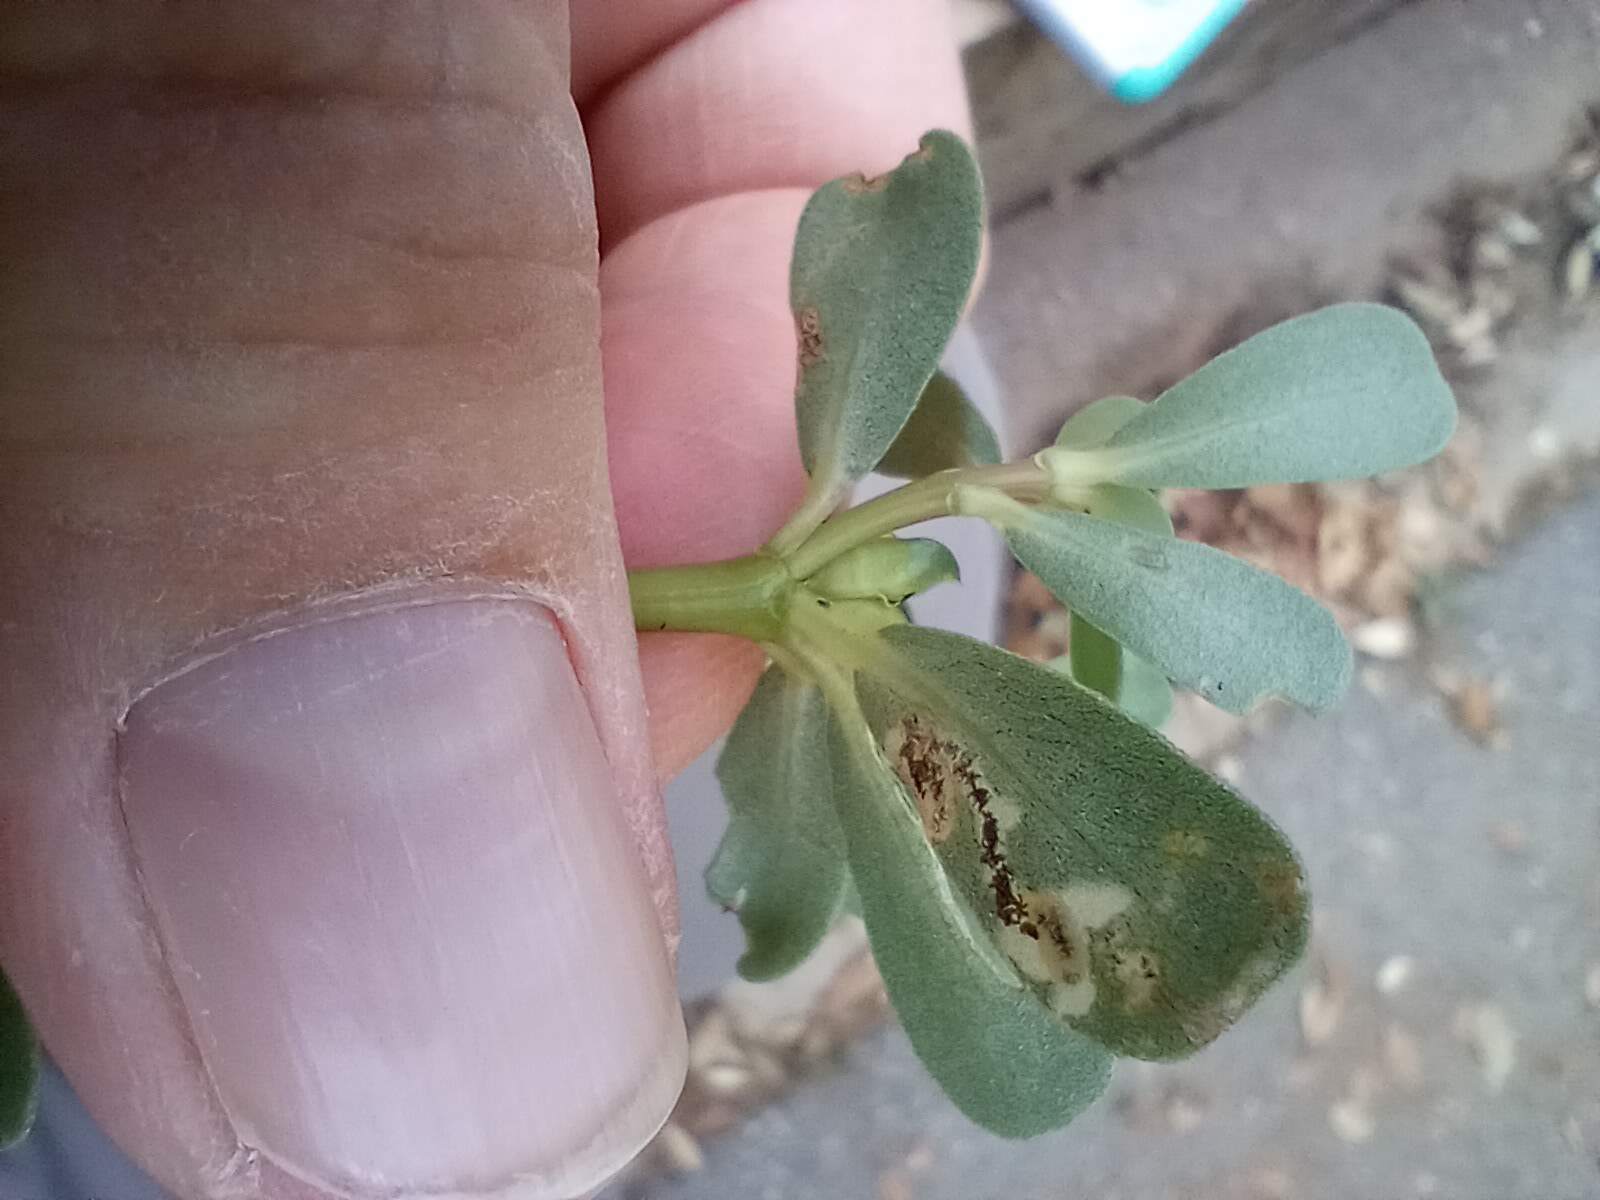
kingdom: Plantae
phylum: Tracheophyta
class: Magnoliopsida
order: Caryophyllales
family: Portulacaceae
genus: Portulaca
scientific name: Portulaca oleracea
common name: Common purslane
